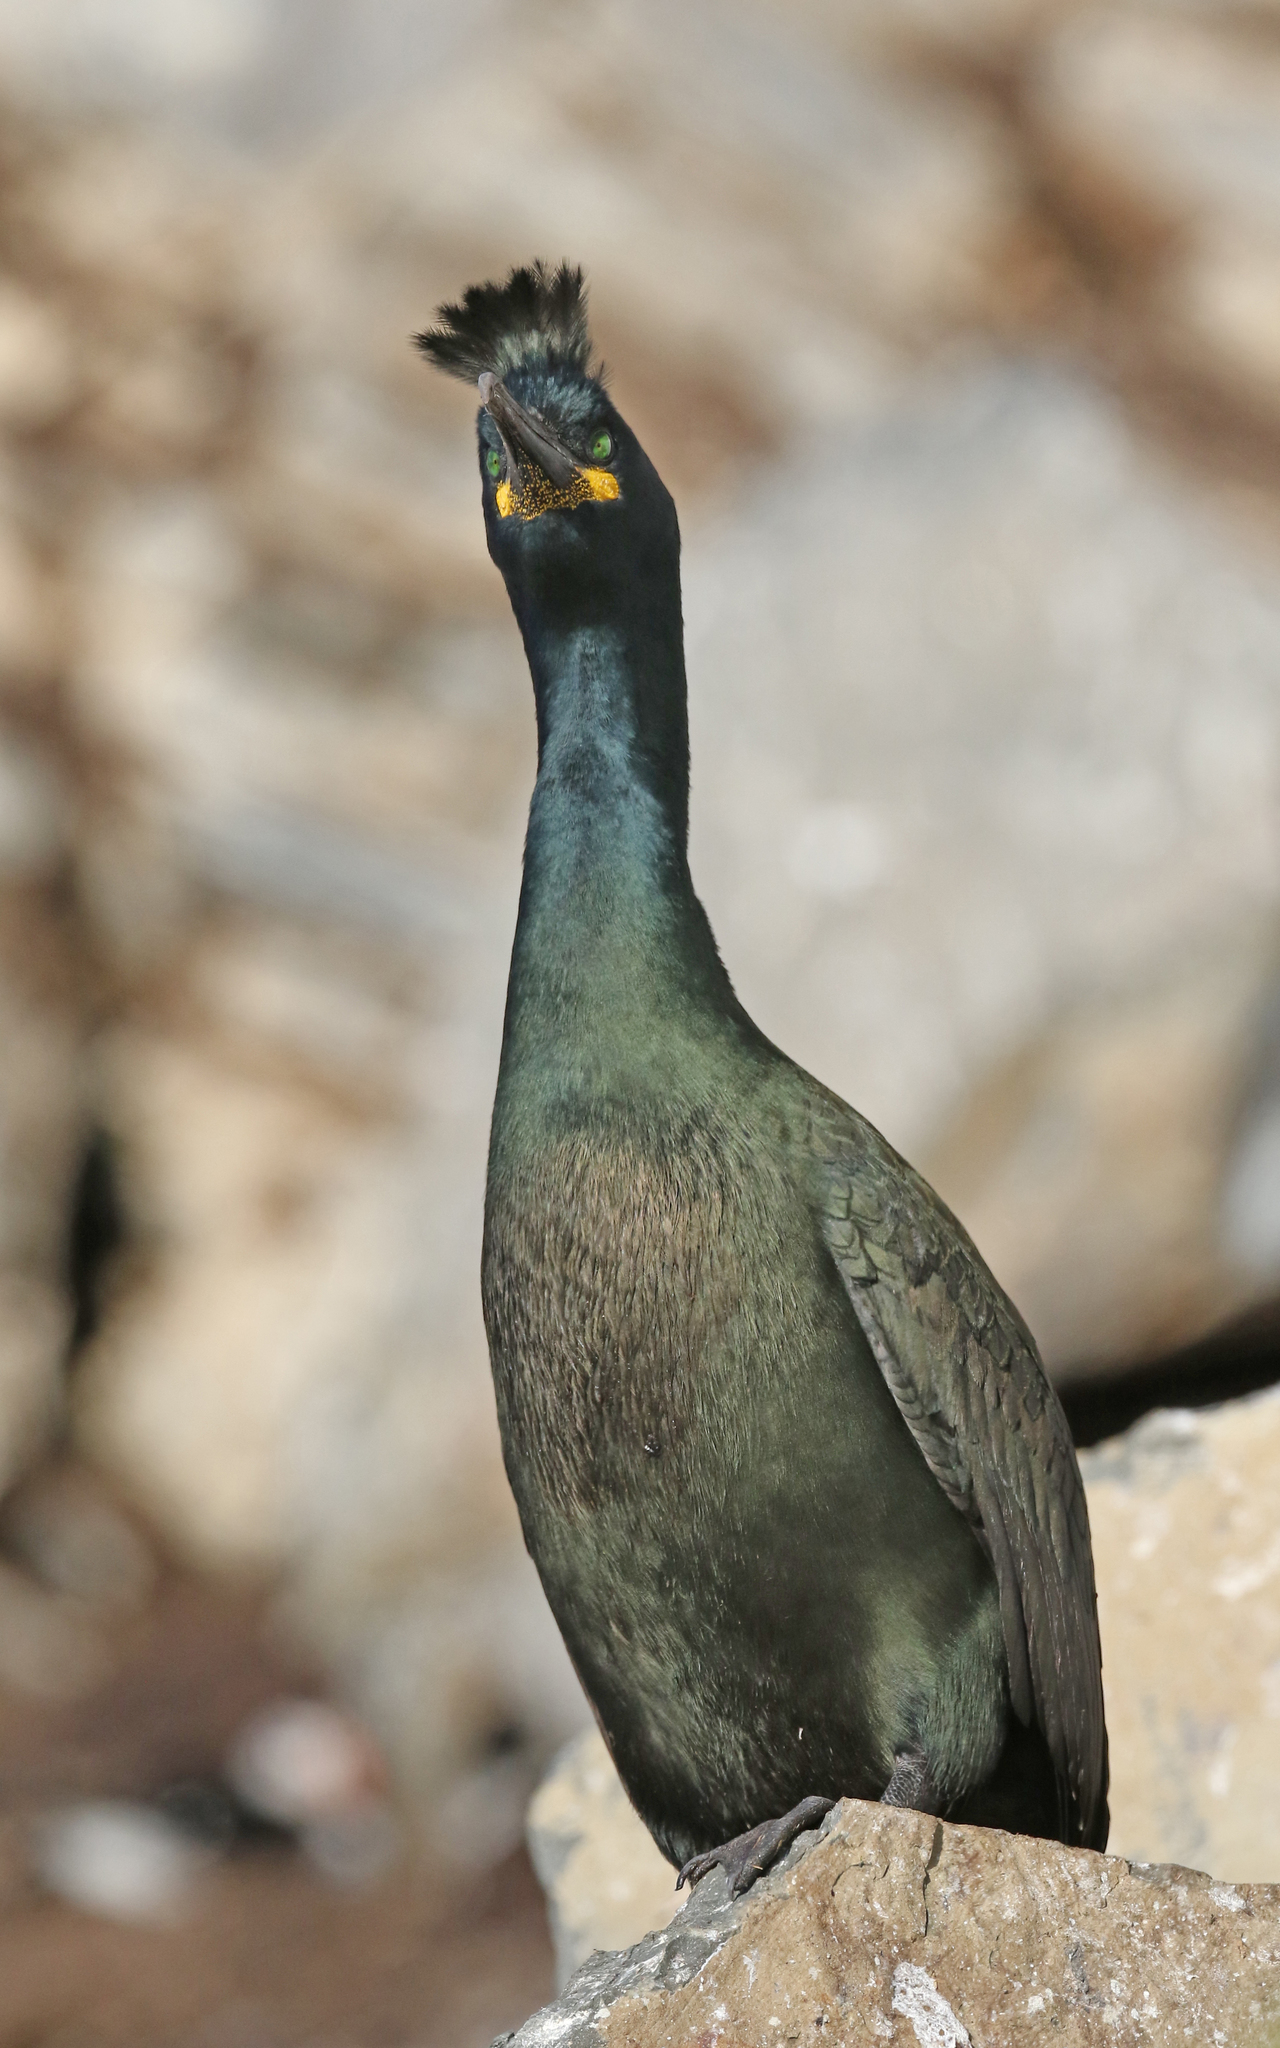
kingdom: Animalia
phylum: Chordata
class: Aves
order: Suliformes
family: Phalacrocoracidae
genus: Phalacrocorax
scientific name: Phalacrocorax aristotelis
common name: European shag
